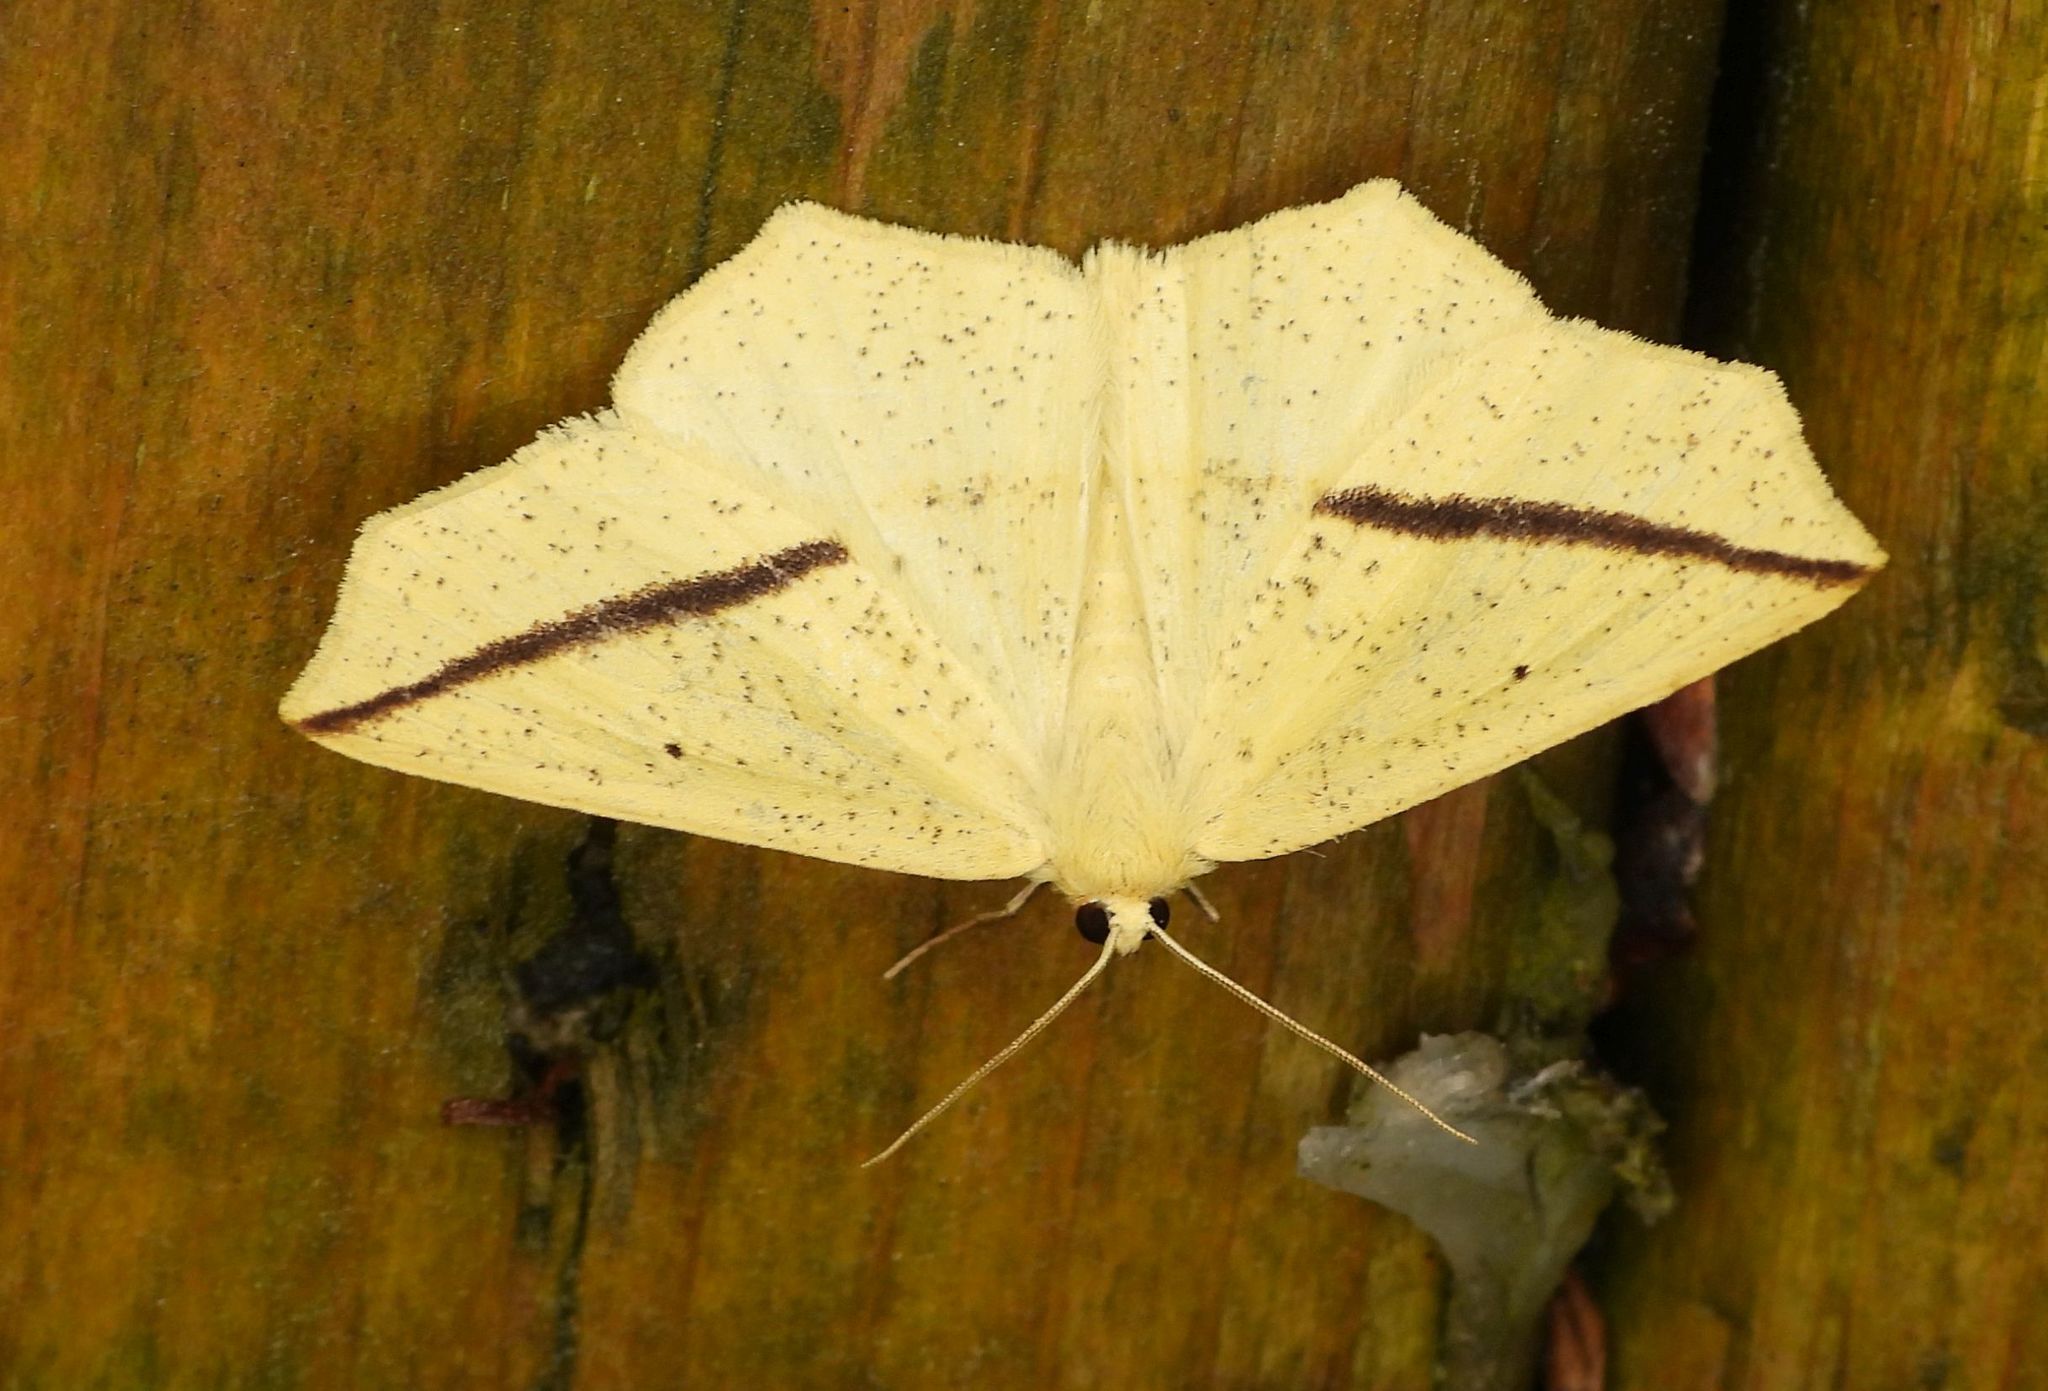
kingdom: Animalia
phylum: Arthropoda
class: Insecta
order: Lepidoptera
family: Geometridae
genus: Tetracis
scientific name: Tetracis crocallata
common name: Yellow slant-line
